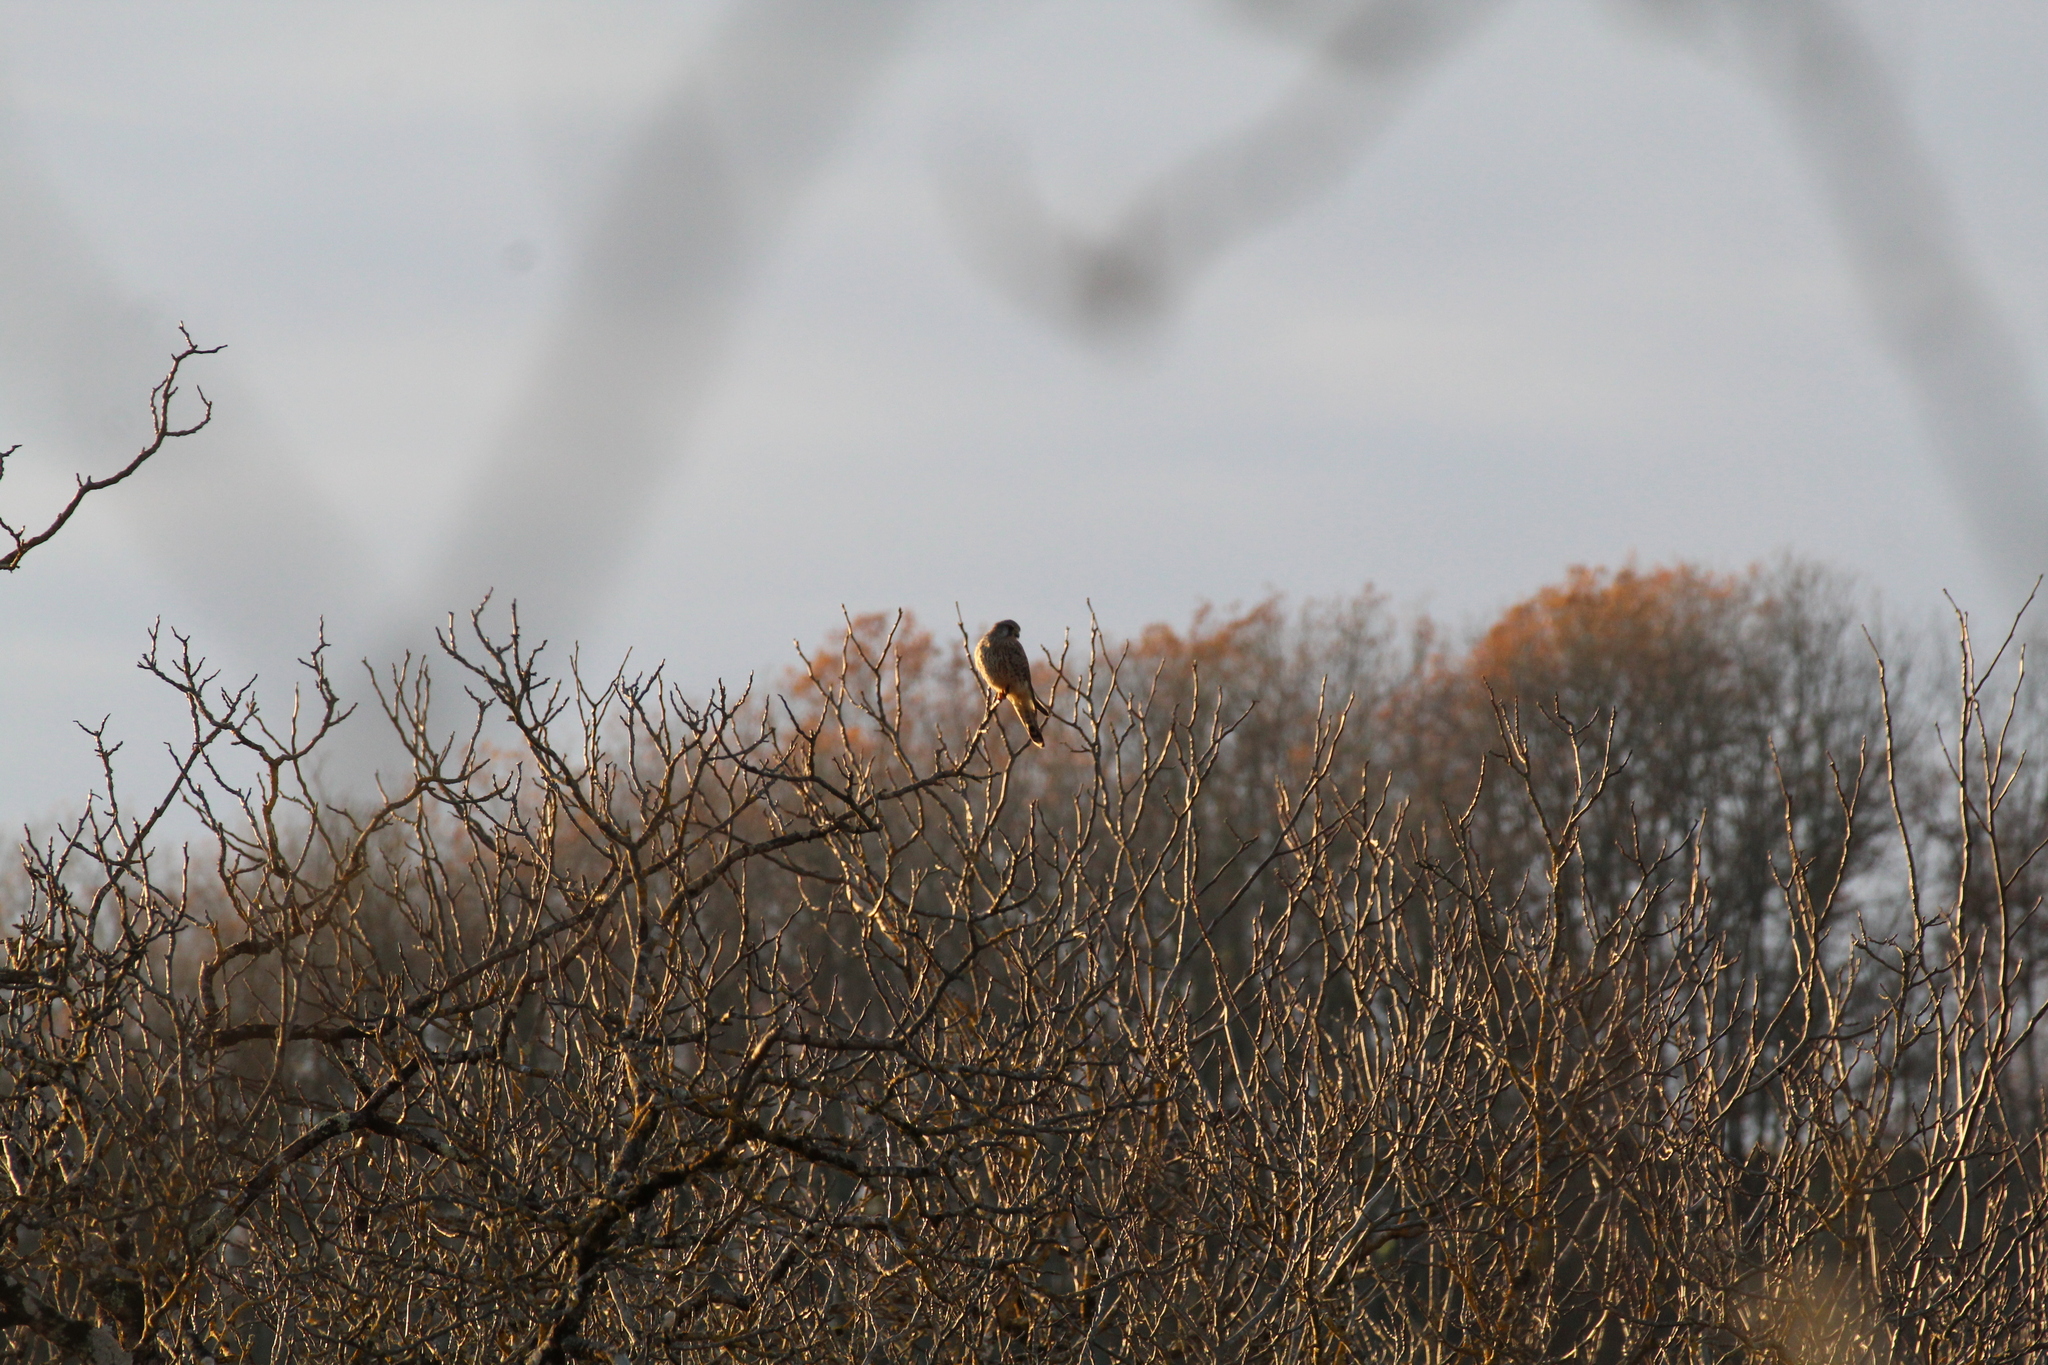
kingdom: Animalia
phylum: Chordata
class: Aves
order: Falconiformes
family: Falconidae
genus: Falco
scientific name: Falco tinnunculus
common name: Common kestrel
